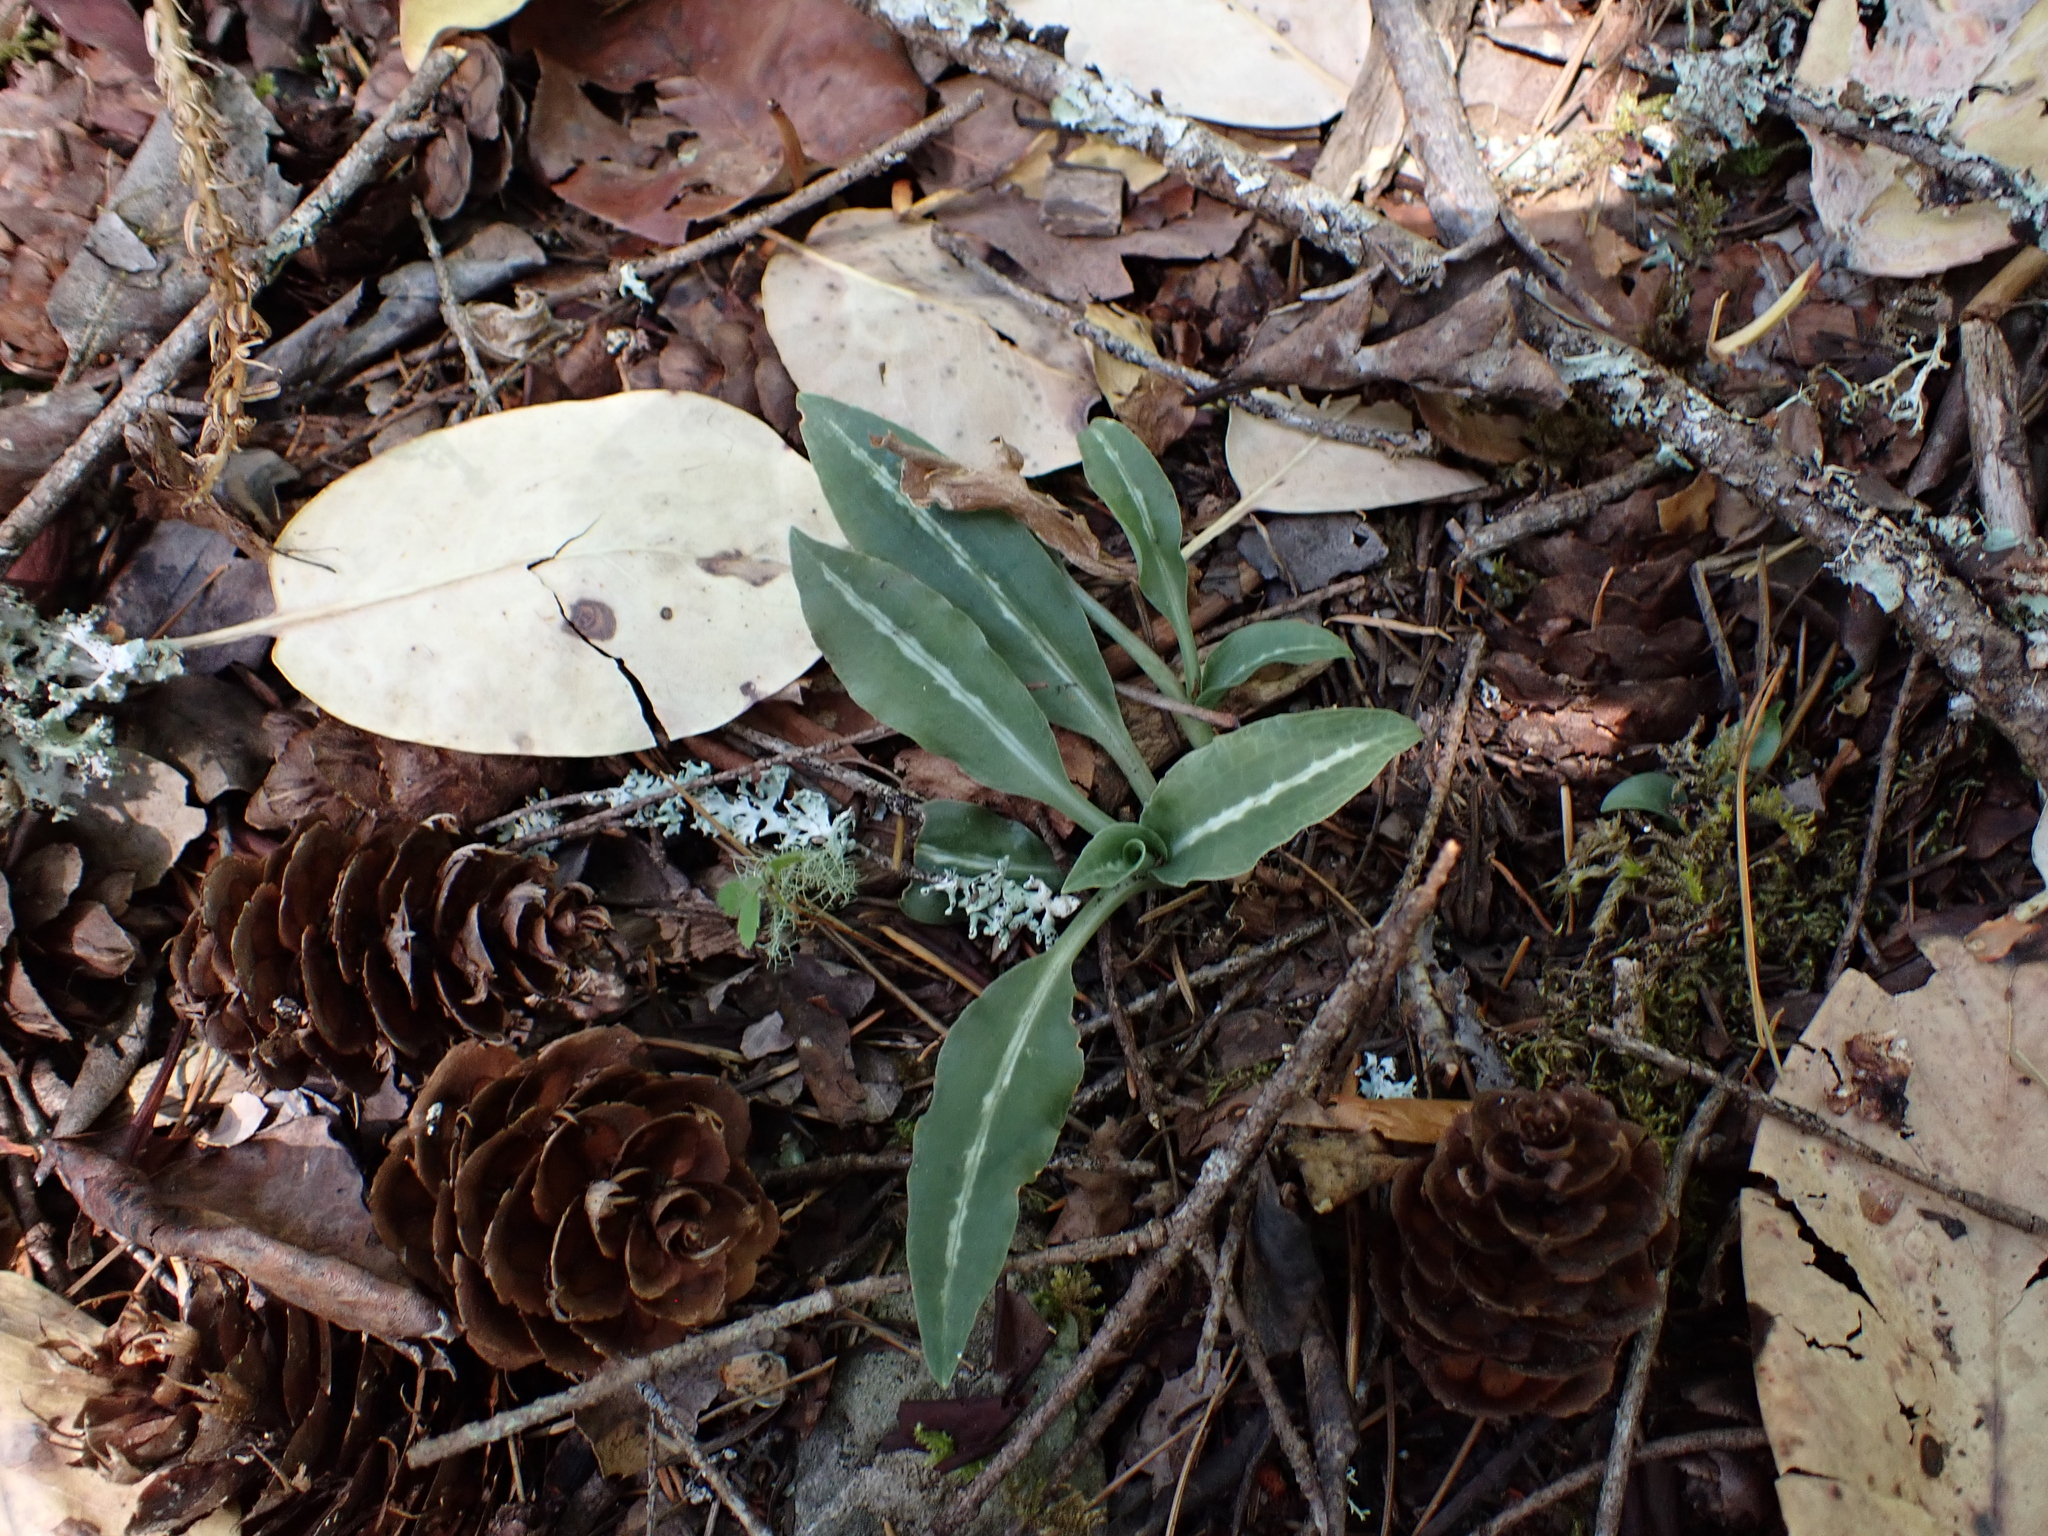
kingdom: Plantae
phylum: Tracheophyta
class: Liliopsida
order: Asparagales
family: Orchidaceae
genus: Goodyera
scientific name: Goodyera oblongifolia
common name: Giant rattlesnake-plantain
